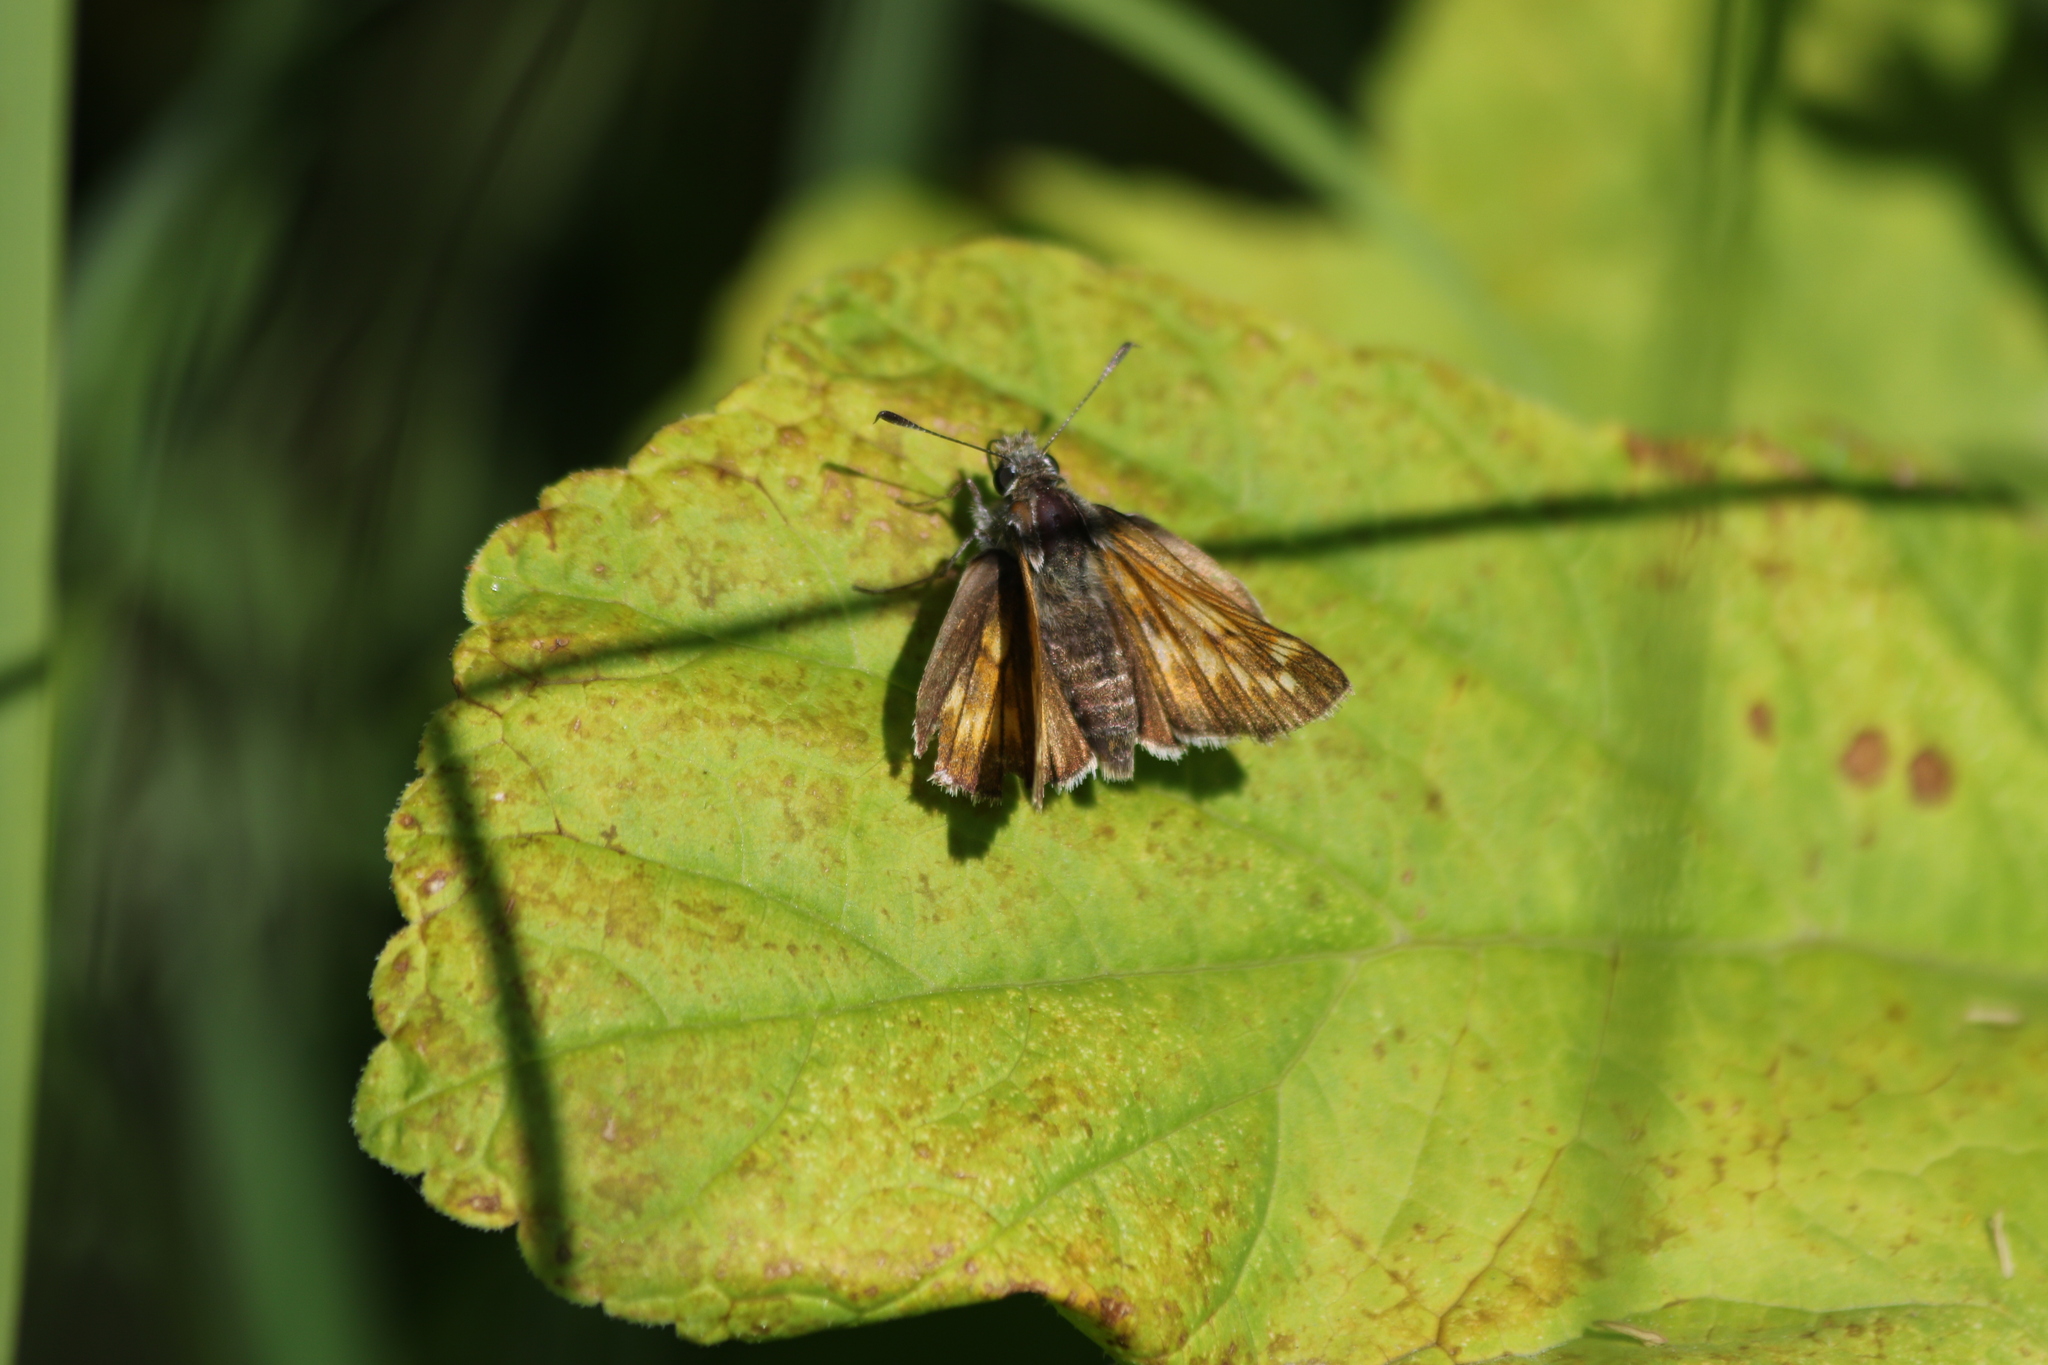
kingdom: Animalia
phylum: Arthropoda
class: Insecta
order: Lepidoptera
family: Hesperiidae
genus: Ochlodes
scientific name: Ochlodes venata
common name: Large skipper
